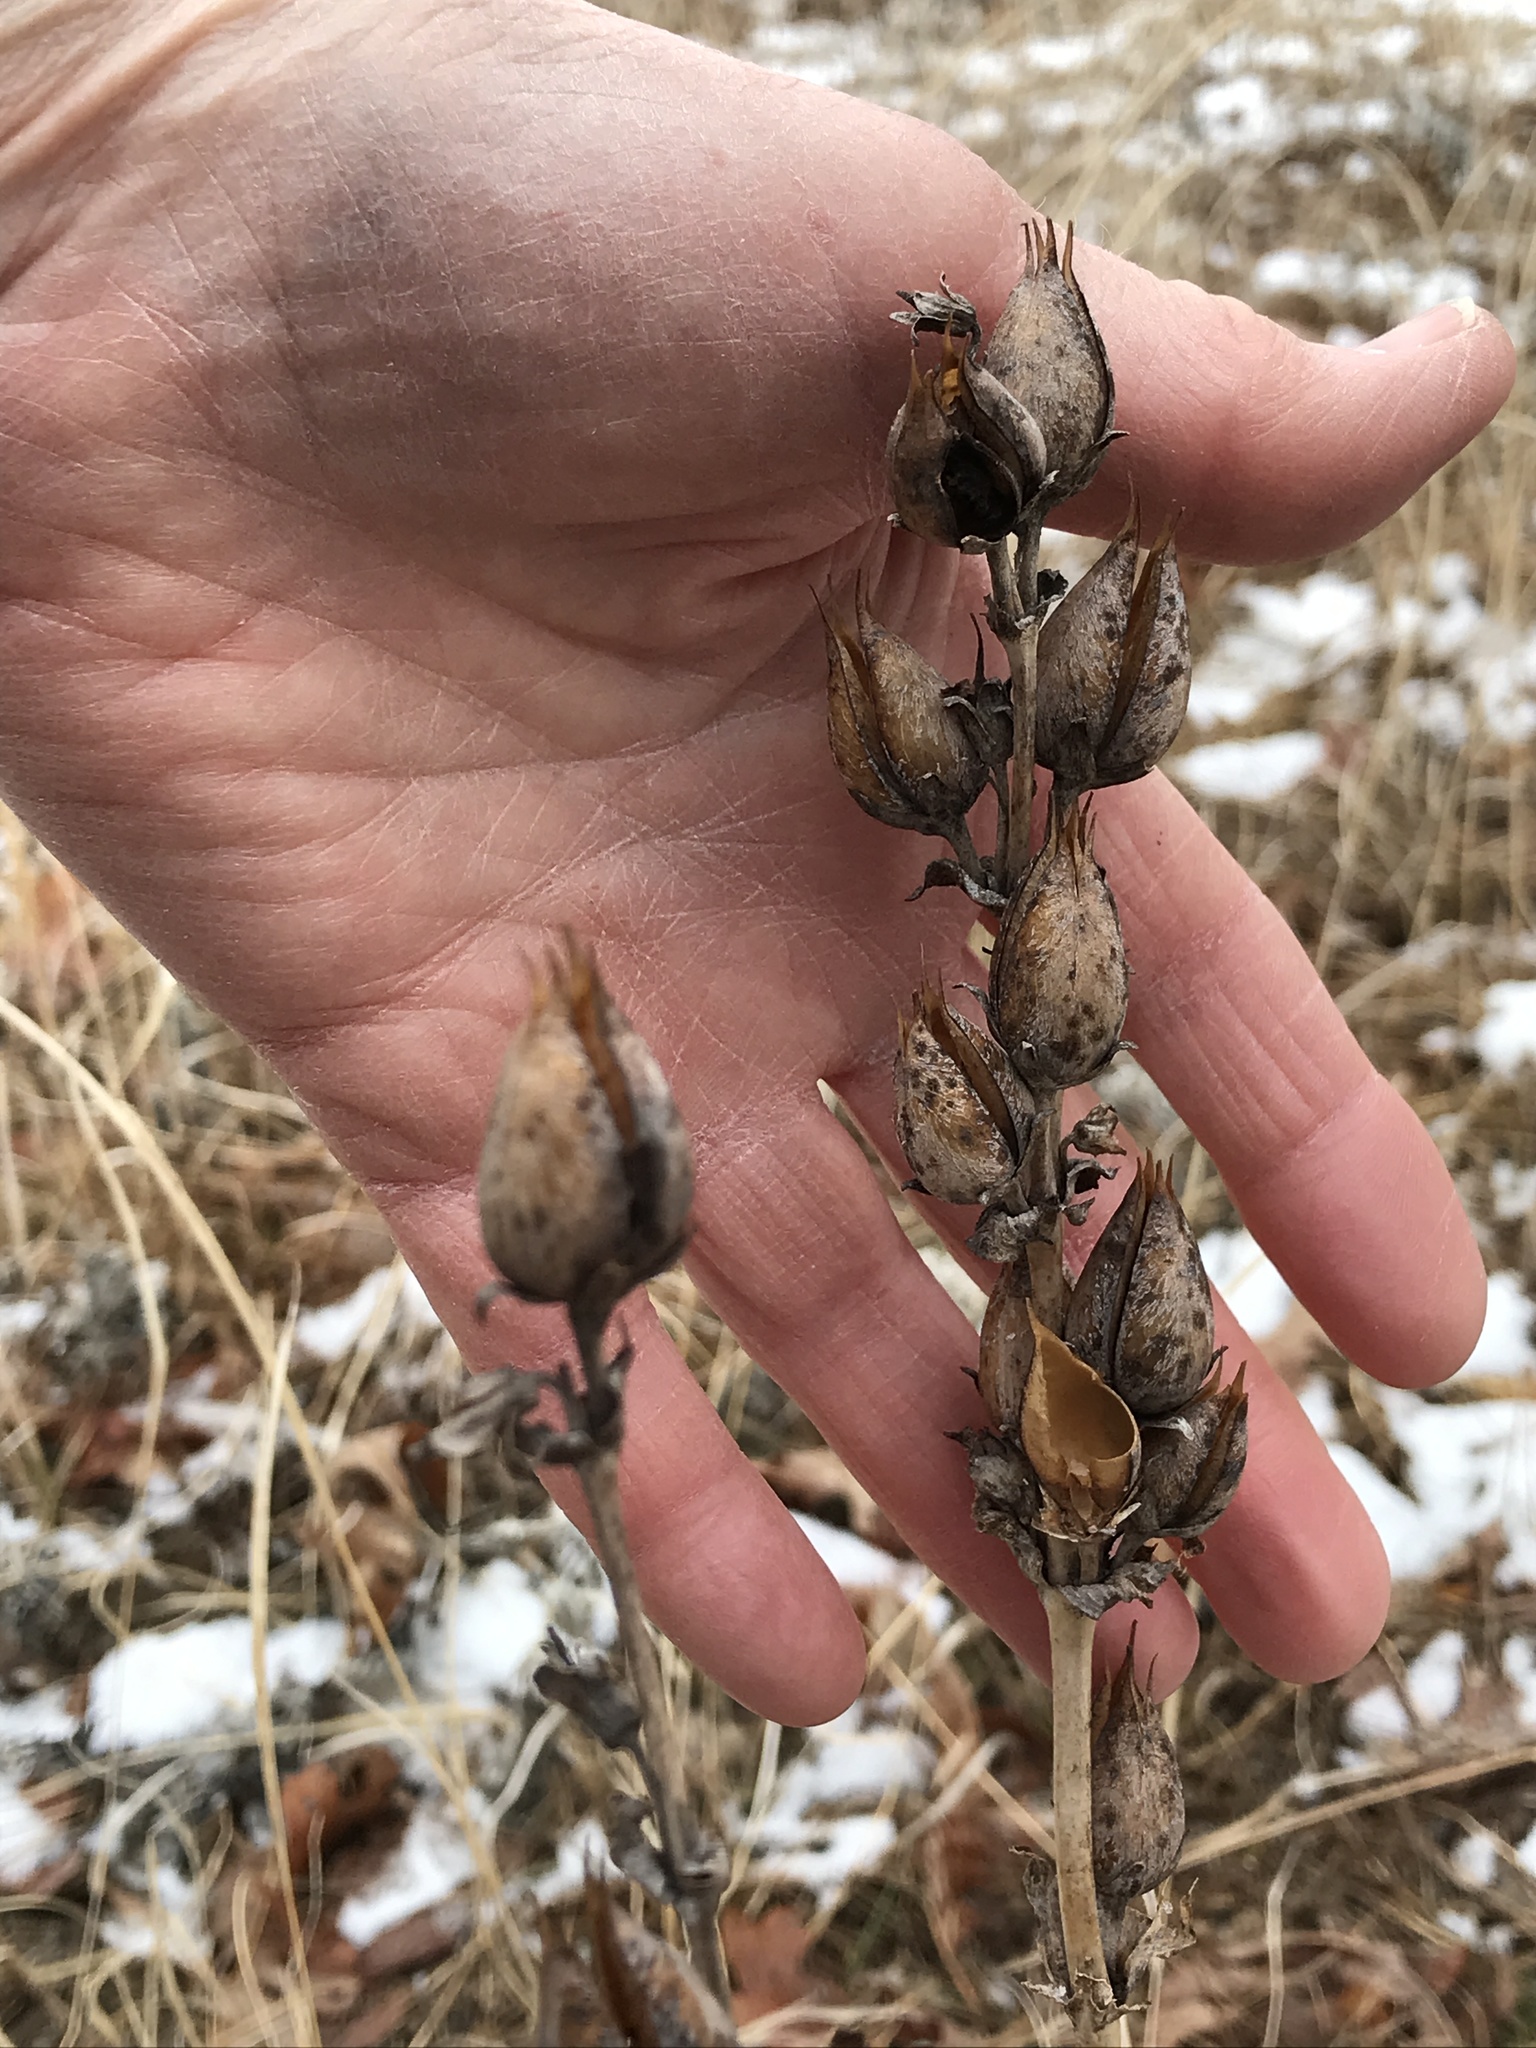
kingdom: Plantae
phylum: Tracheophyta
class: Magnoliopsida
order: Lamiales
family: Plantaginaceae
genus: Penstemon
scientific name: Penstemon
